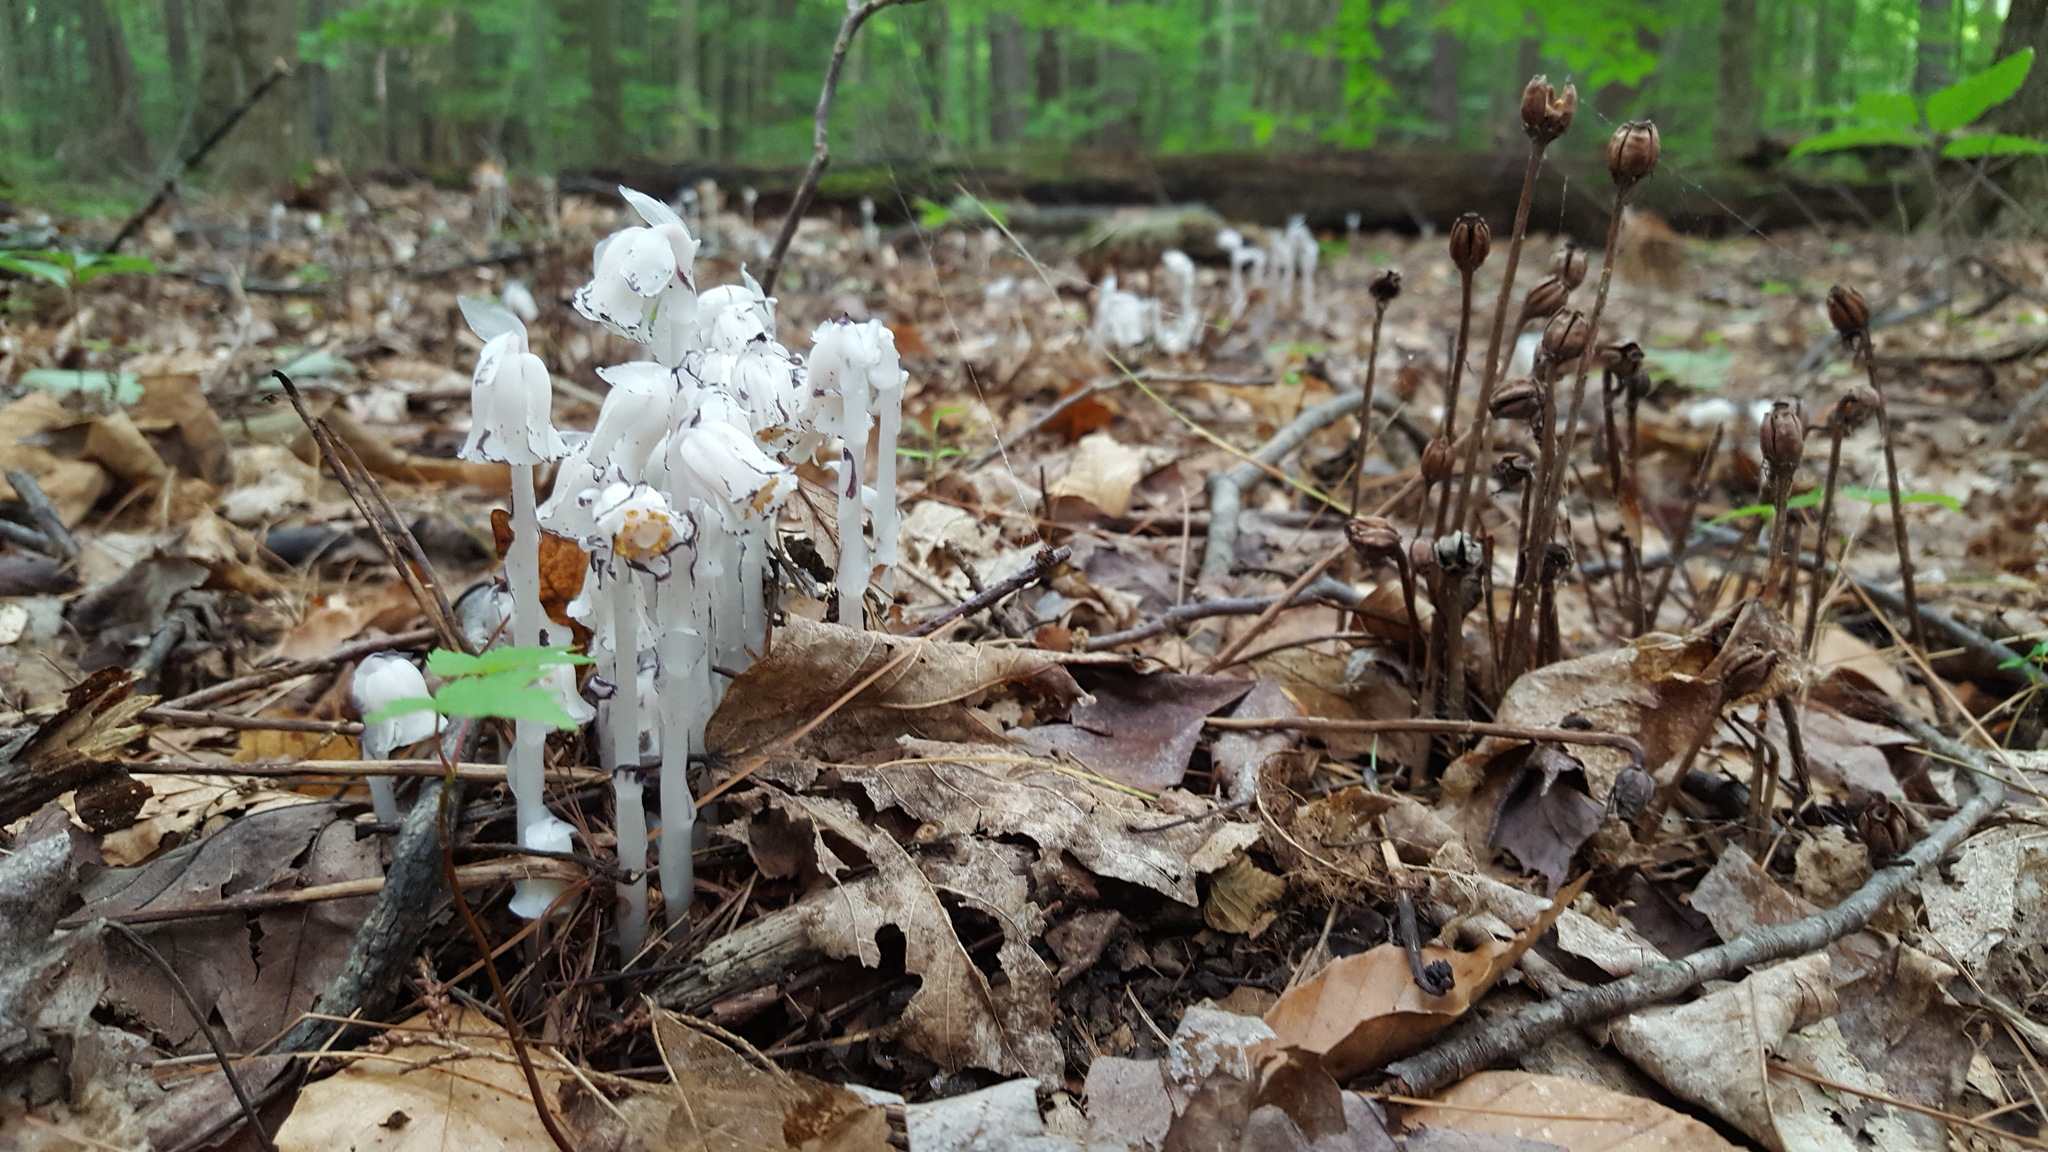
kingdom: Plantae
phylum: Tracheophyta
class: Magnoliopsida
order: Ericales
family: Ericaceae
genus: Monotropa
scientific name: Monotropa uniflora
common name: Convulsion root
